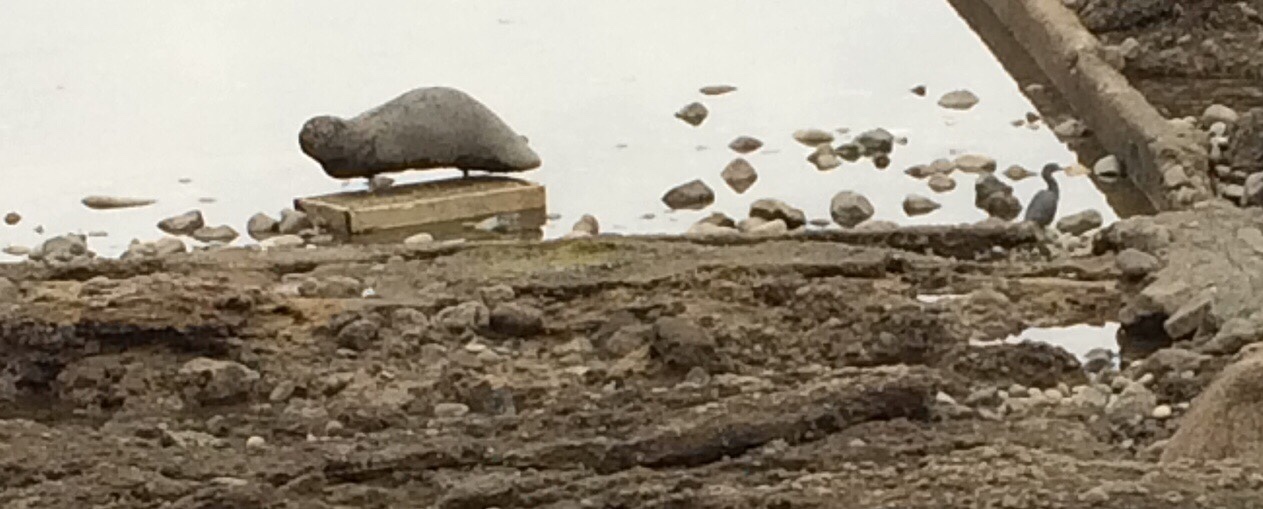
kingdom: Animalia
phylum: Chordata
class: Aves
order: Pelecaniformes
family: Ardeidae
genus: Egretta
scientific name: Egretta sacra
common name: Pacific reef heron
